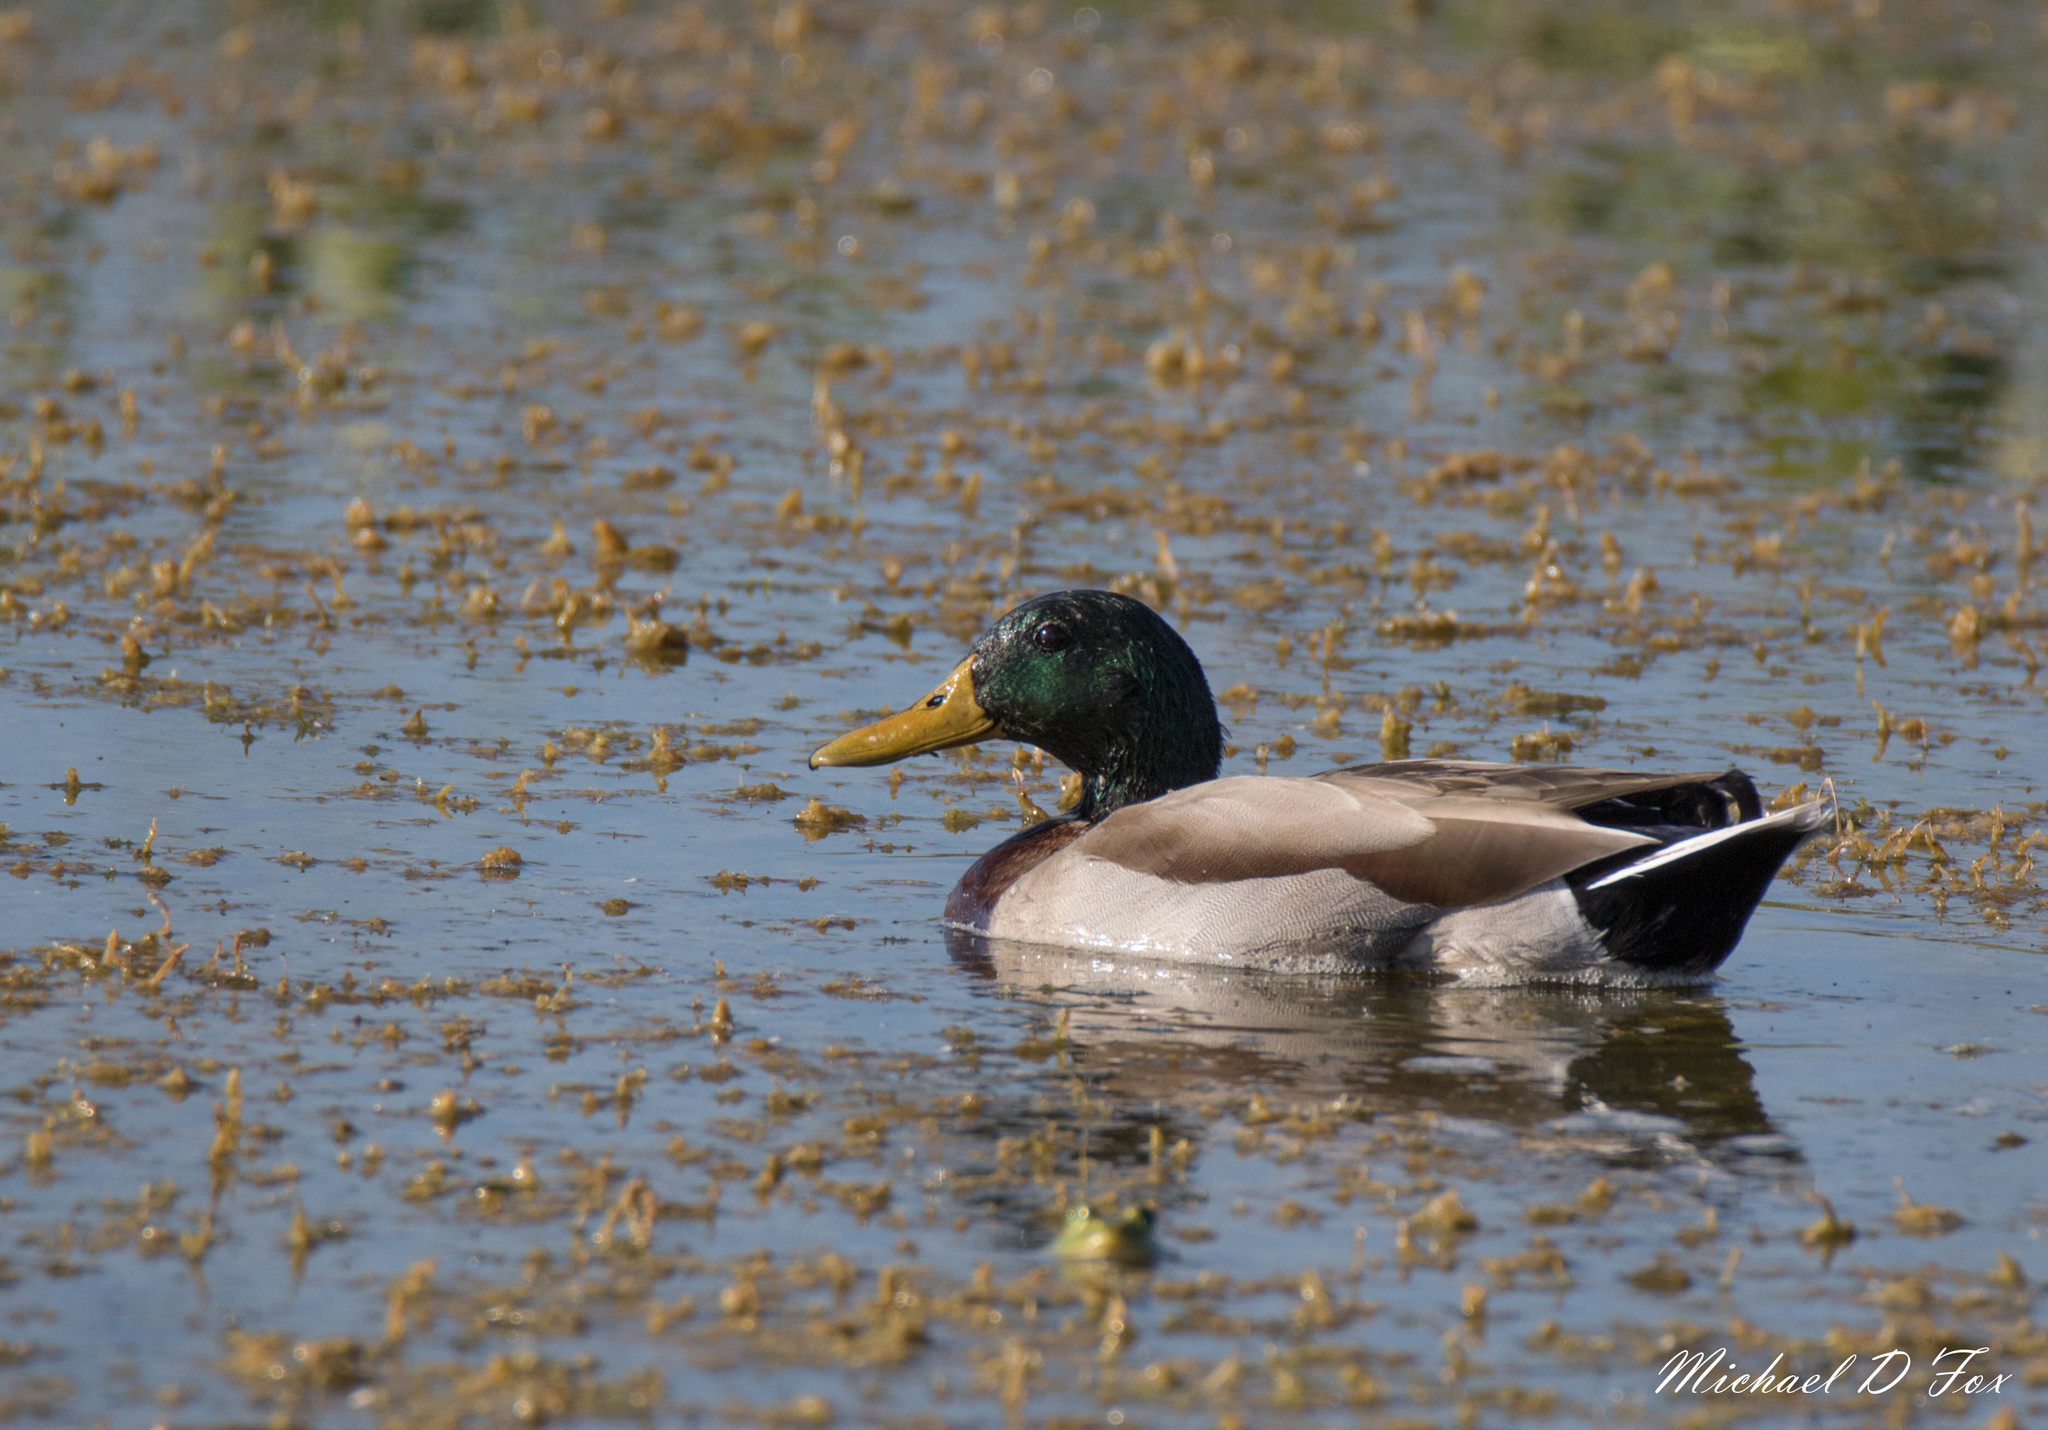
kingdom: Animalia
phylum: Chordata
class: Aves
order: Anseriformes
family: Anatidae
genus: Anas
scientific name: Anas platyrhynchos
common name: Mallard
